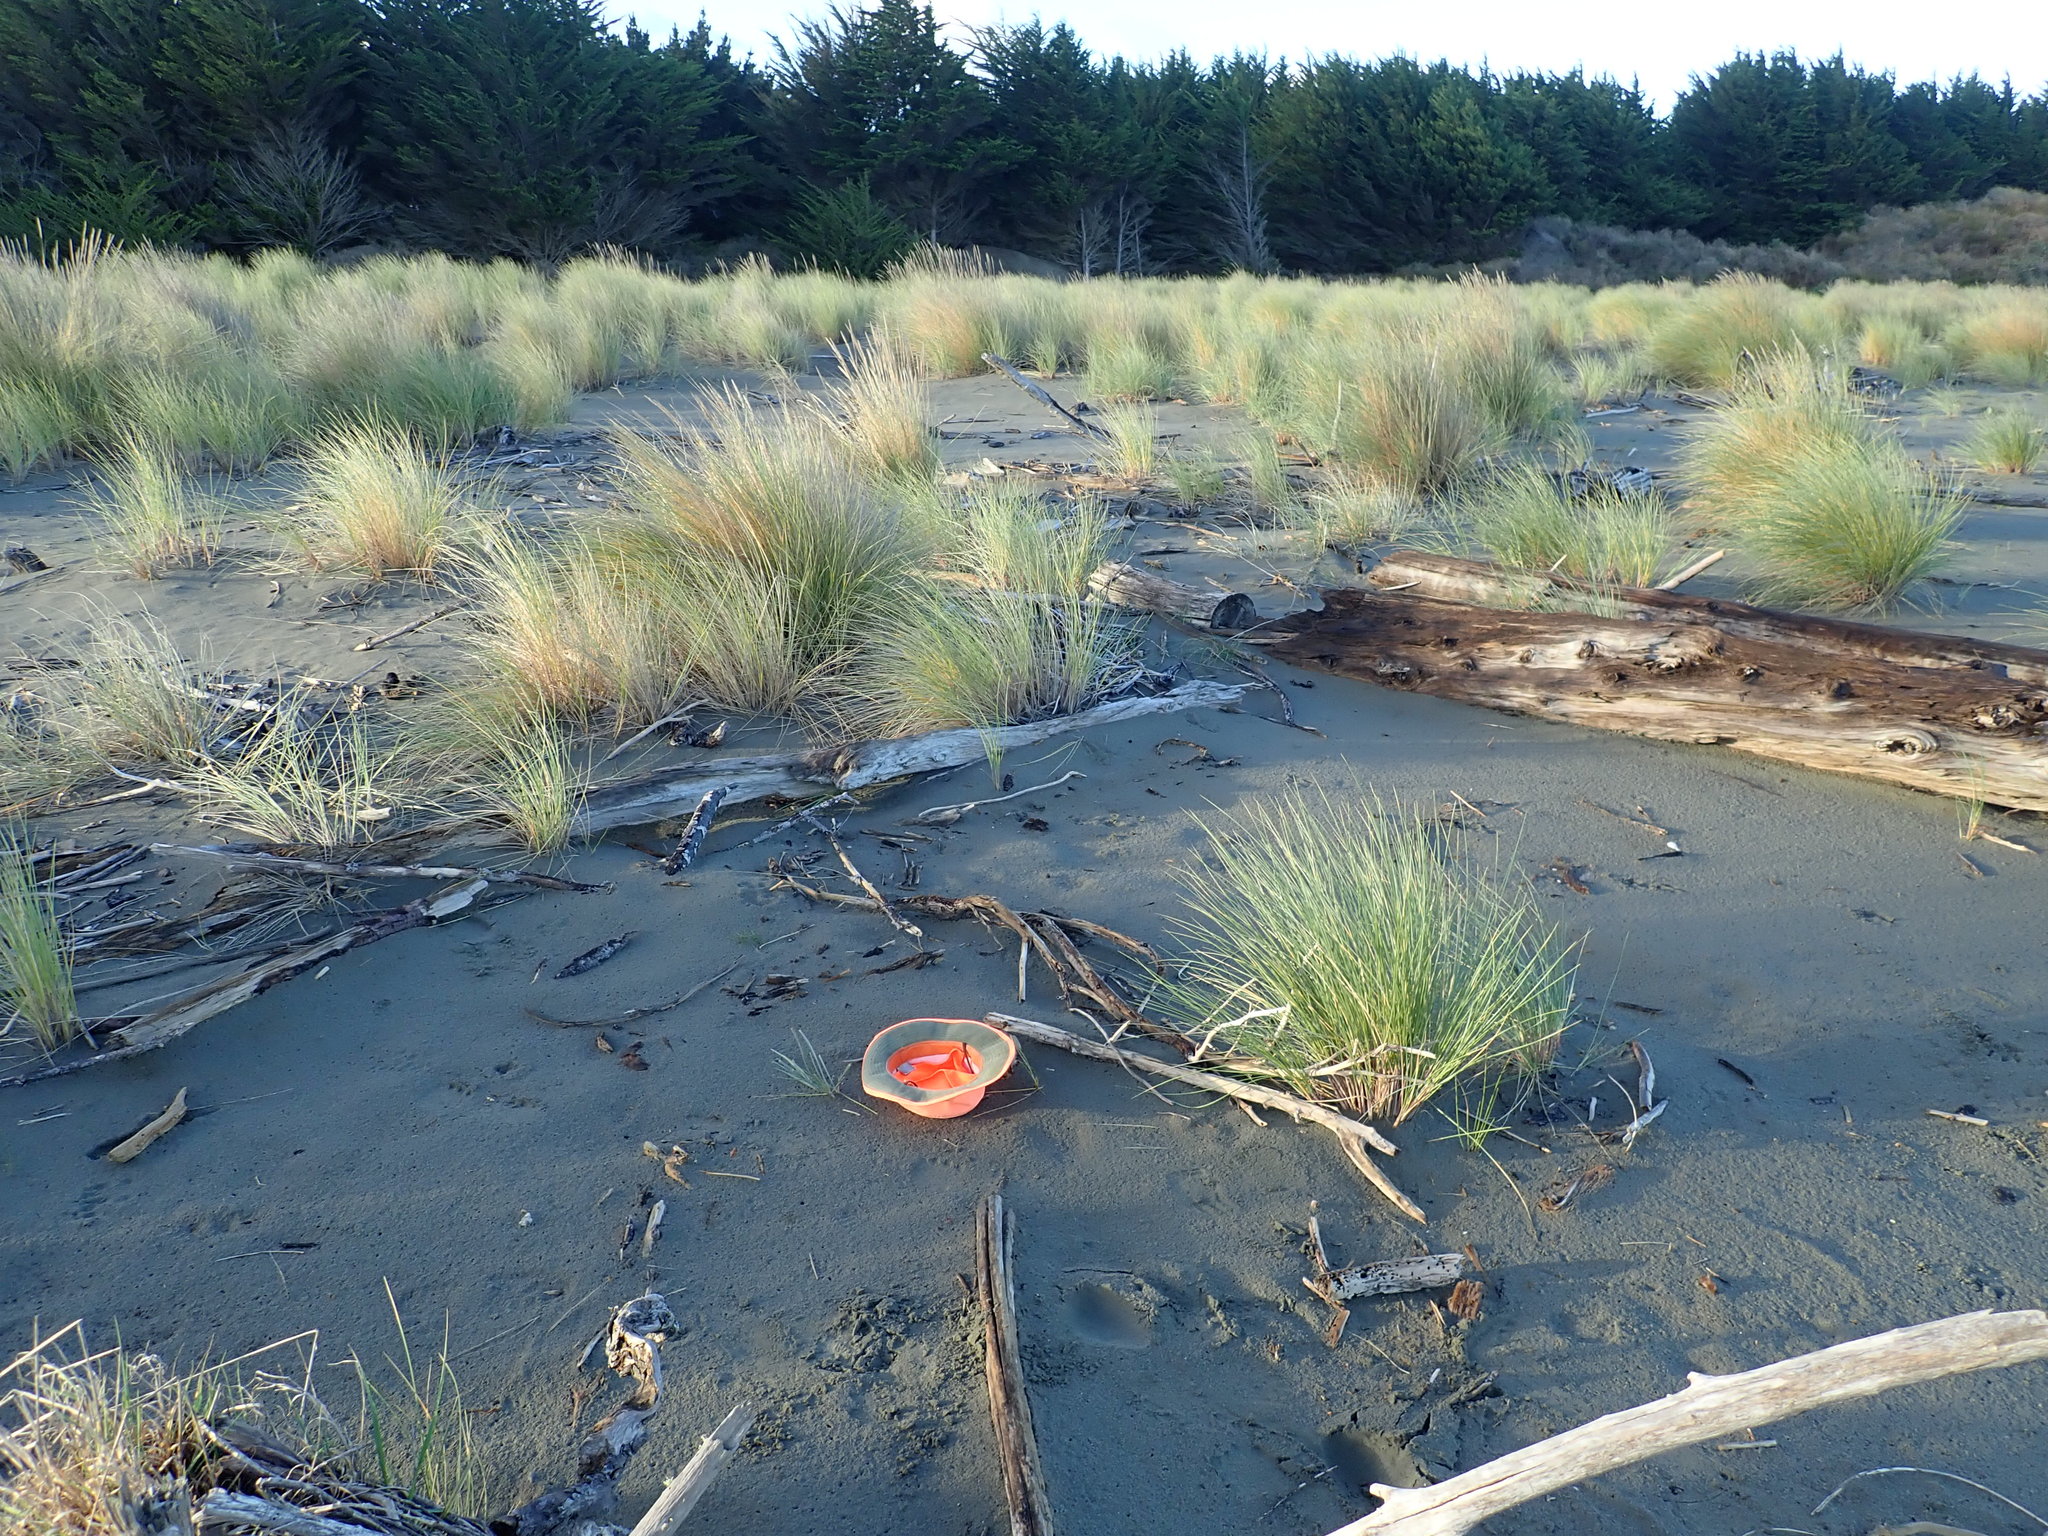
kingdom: Plantae
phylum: Tracheophyta
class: Liliopsida
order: Poales
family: Poaceae
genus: Spinifex
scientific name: Spinifex sericeus
